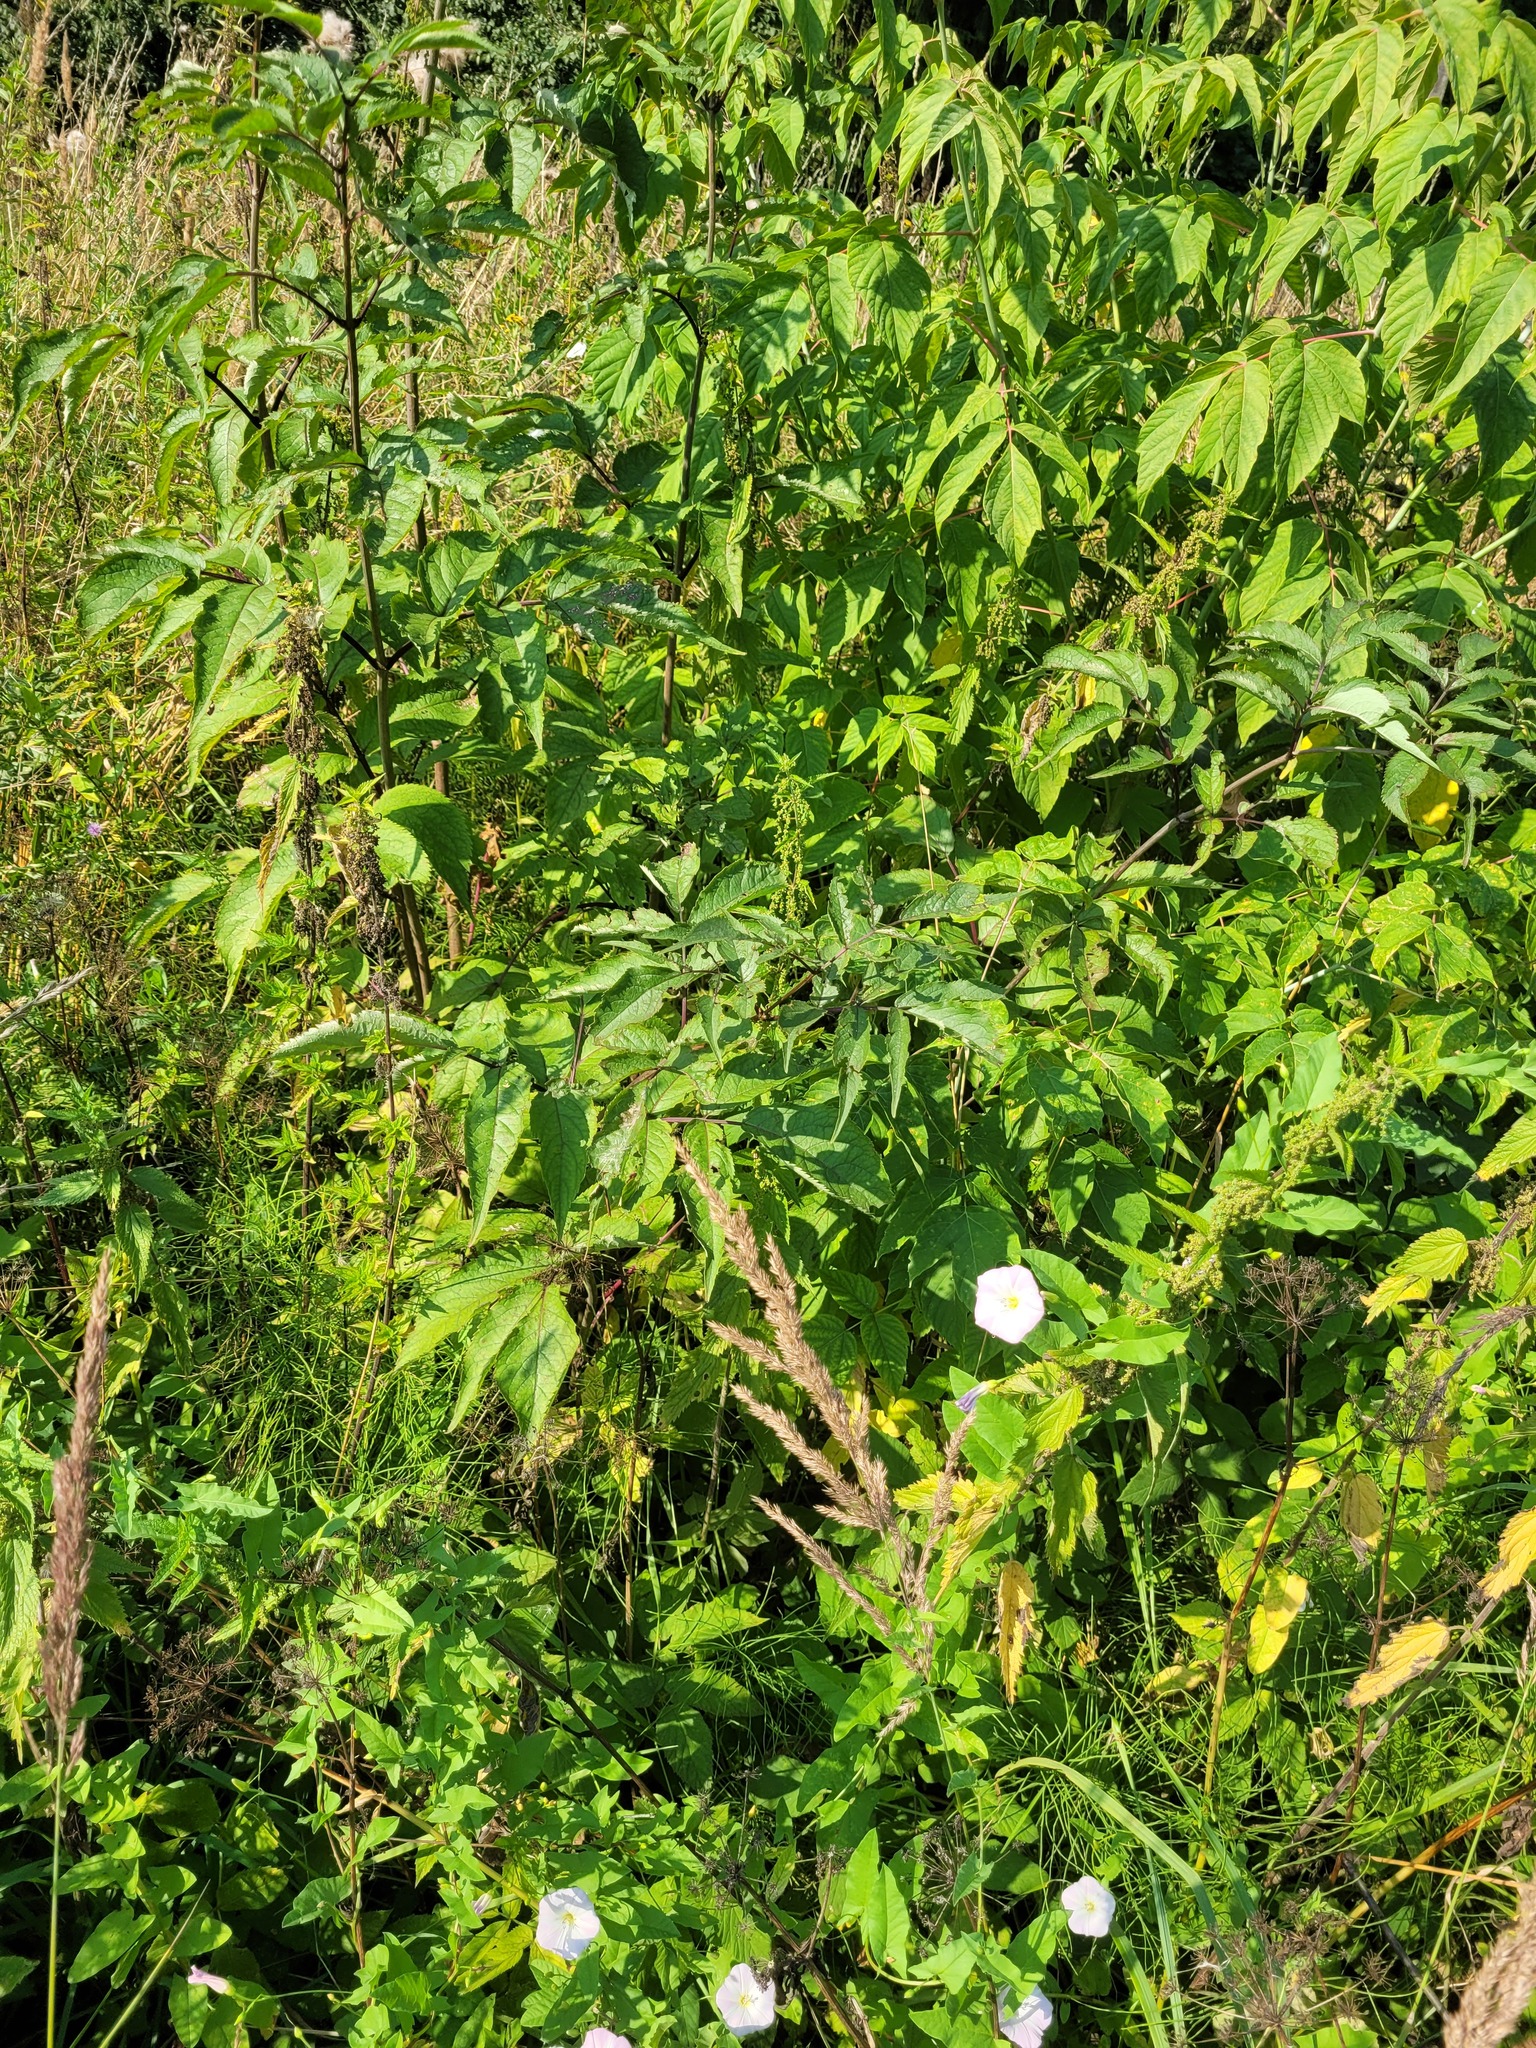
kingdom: Plantae
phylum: Tracheophyta
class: Magnoliopsida
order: Dipsacales
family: Viburnaceae
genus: Sambucus
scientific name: Sambucus racemosa
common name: Red-berried elder
